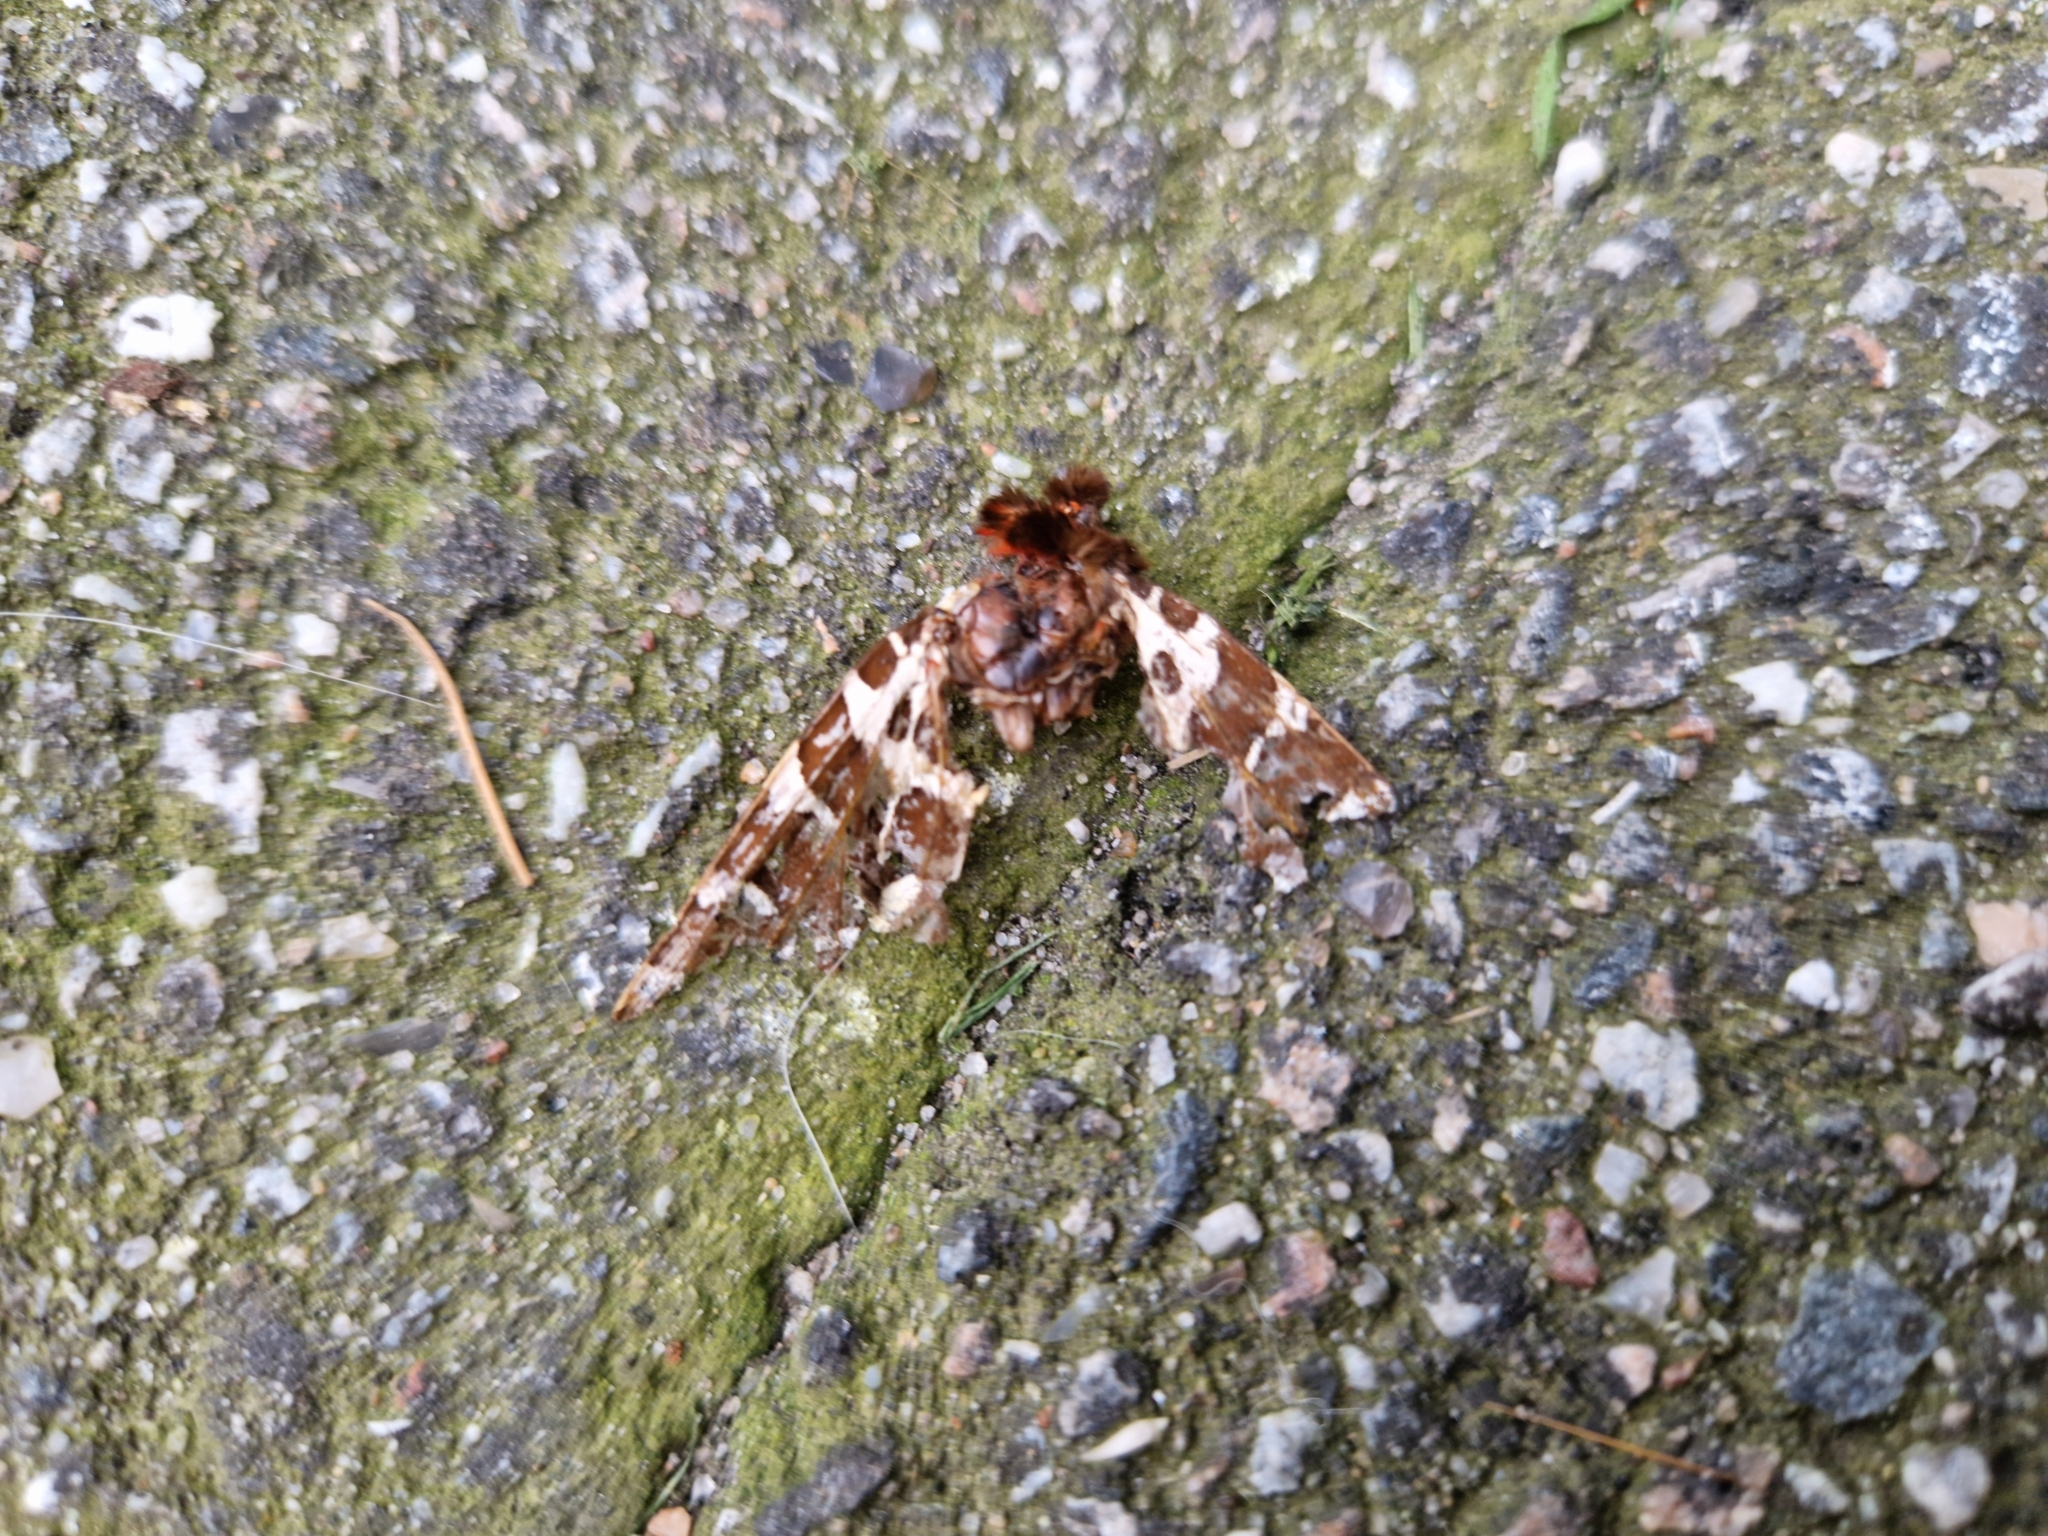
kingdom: Animalia
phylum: Arthropoda
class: Insecta
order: Lepidoptera
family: Erebidae
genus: Arctia
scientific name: Arctia caja
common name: Garden tiger
